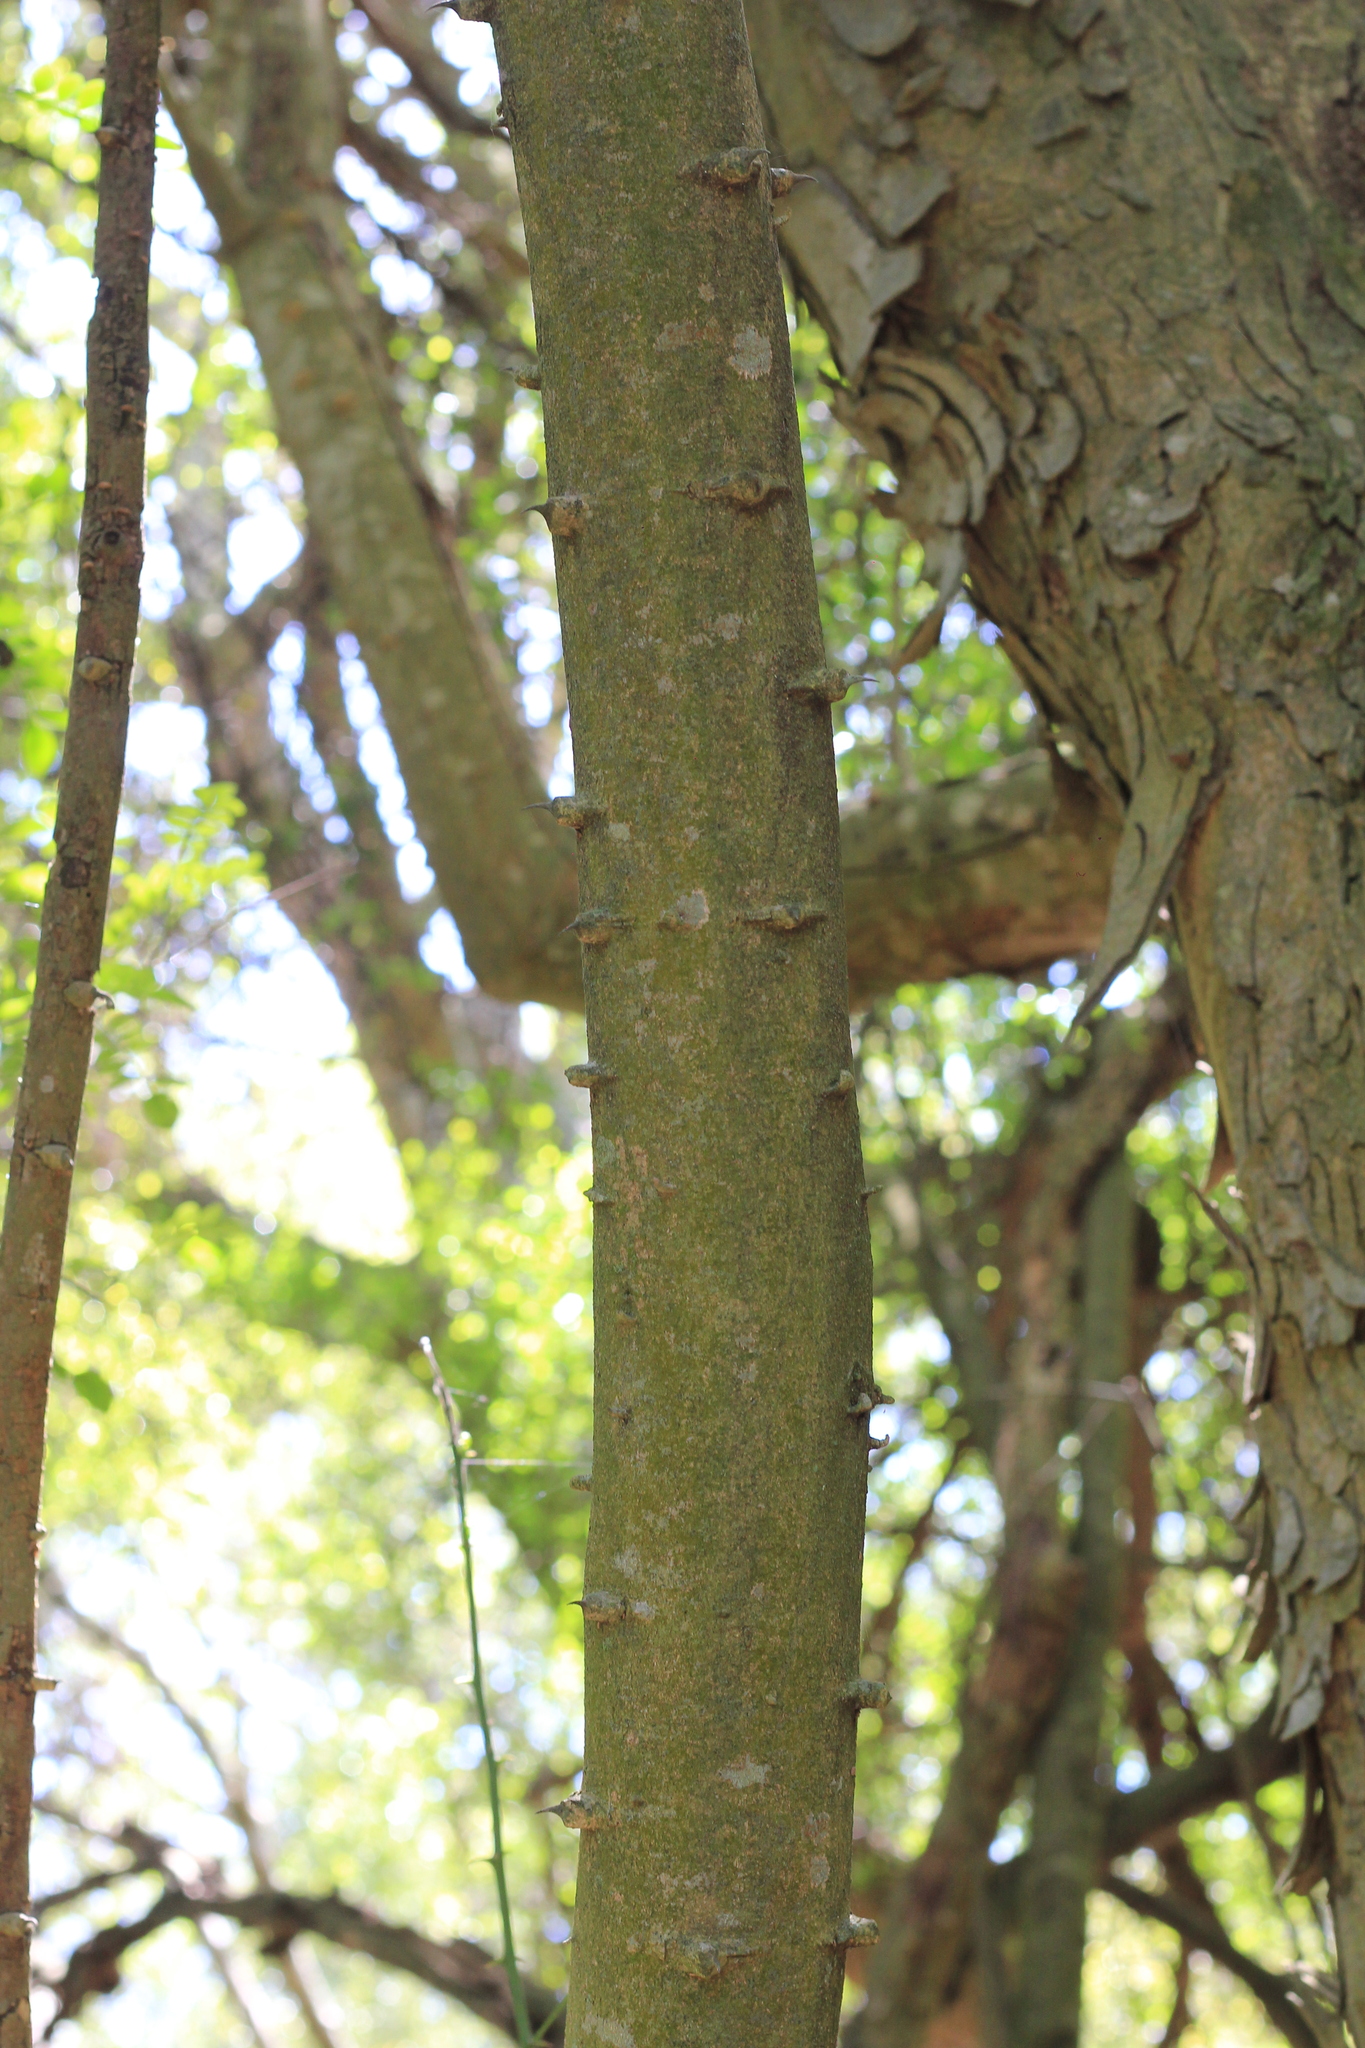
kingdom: Plantae
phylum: Tracheophyta
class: Magnoliopsida
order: Sapindales
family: Rutaceae
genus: Zanthoxylum
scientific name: Zanthoxylum fagara
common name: Lime prickly-ash
